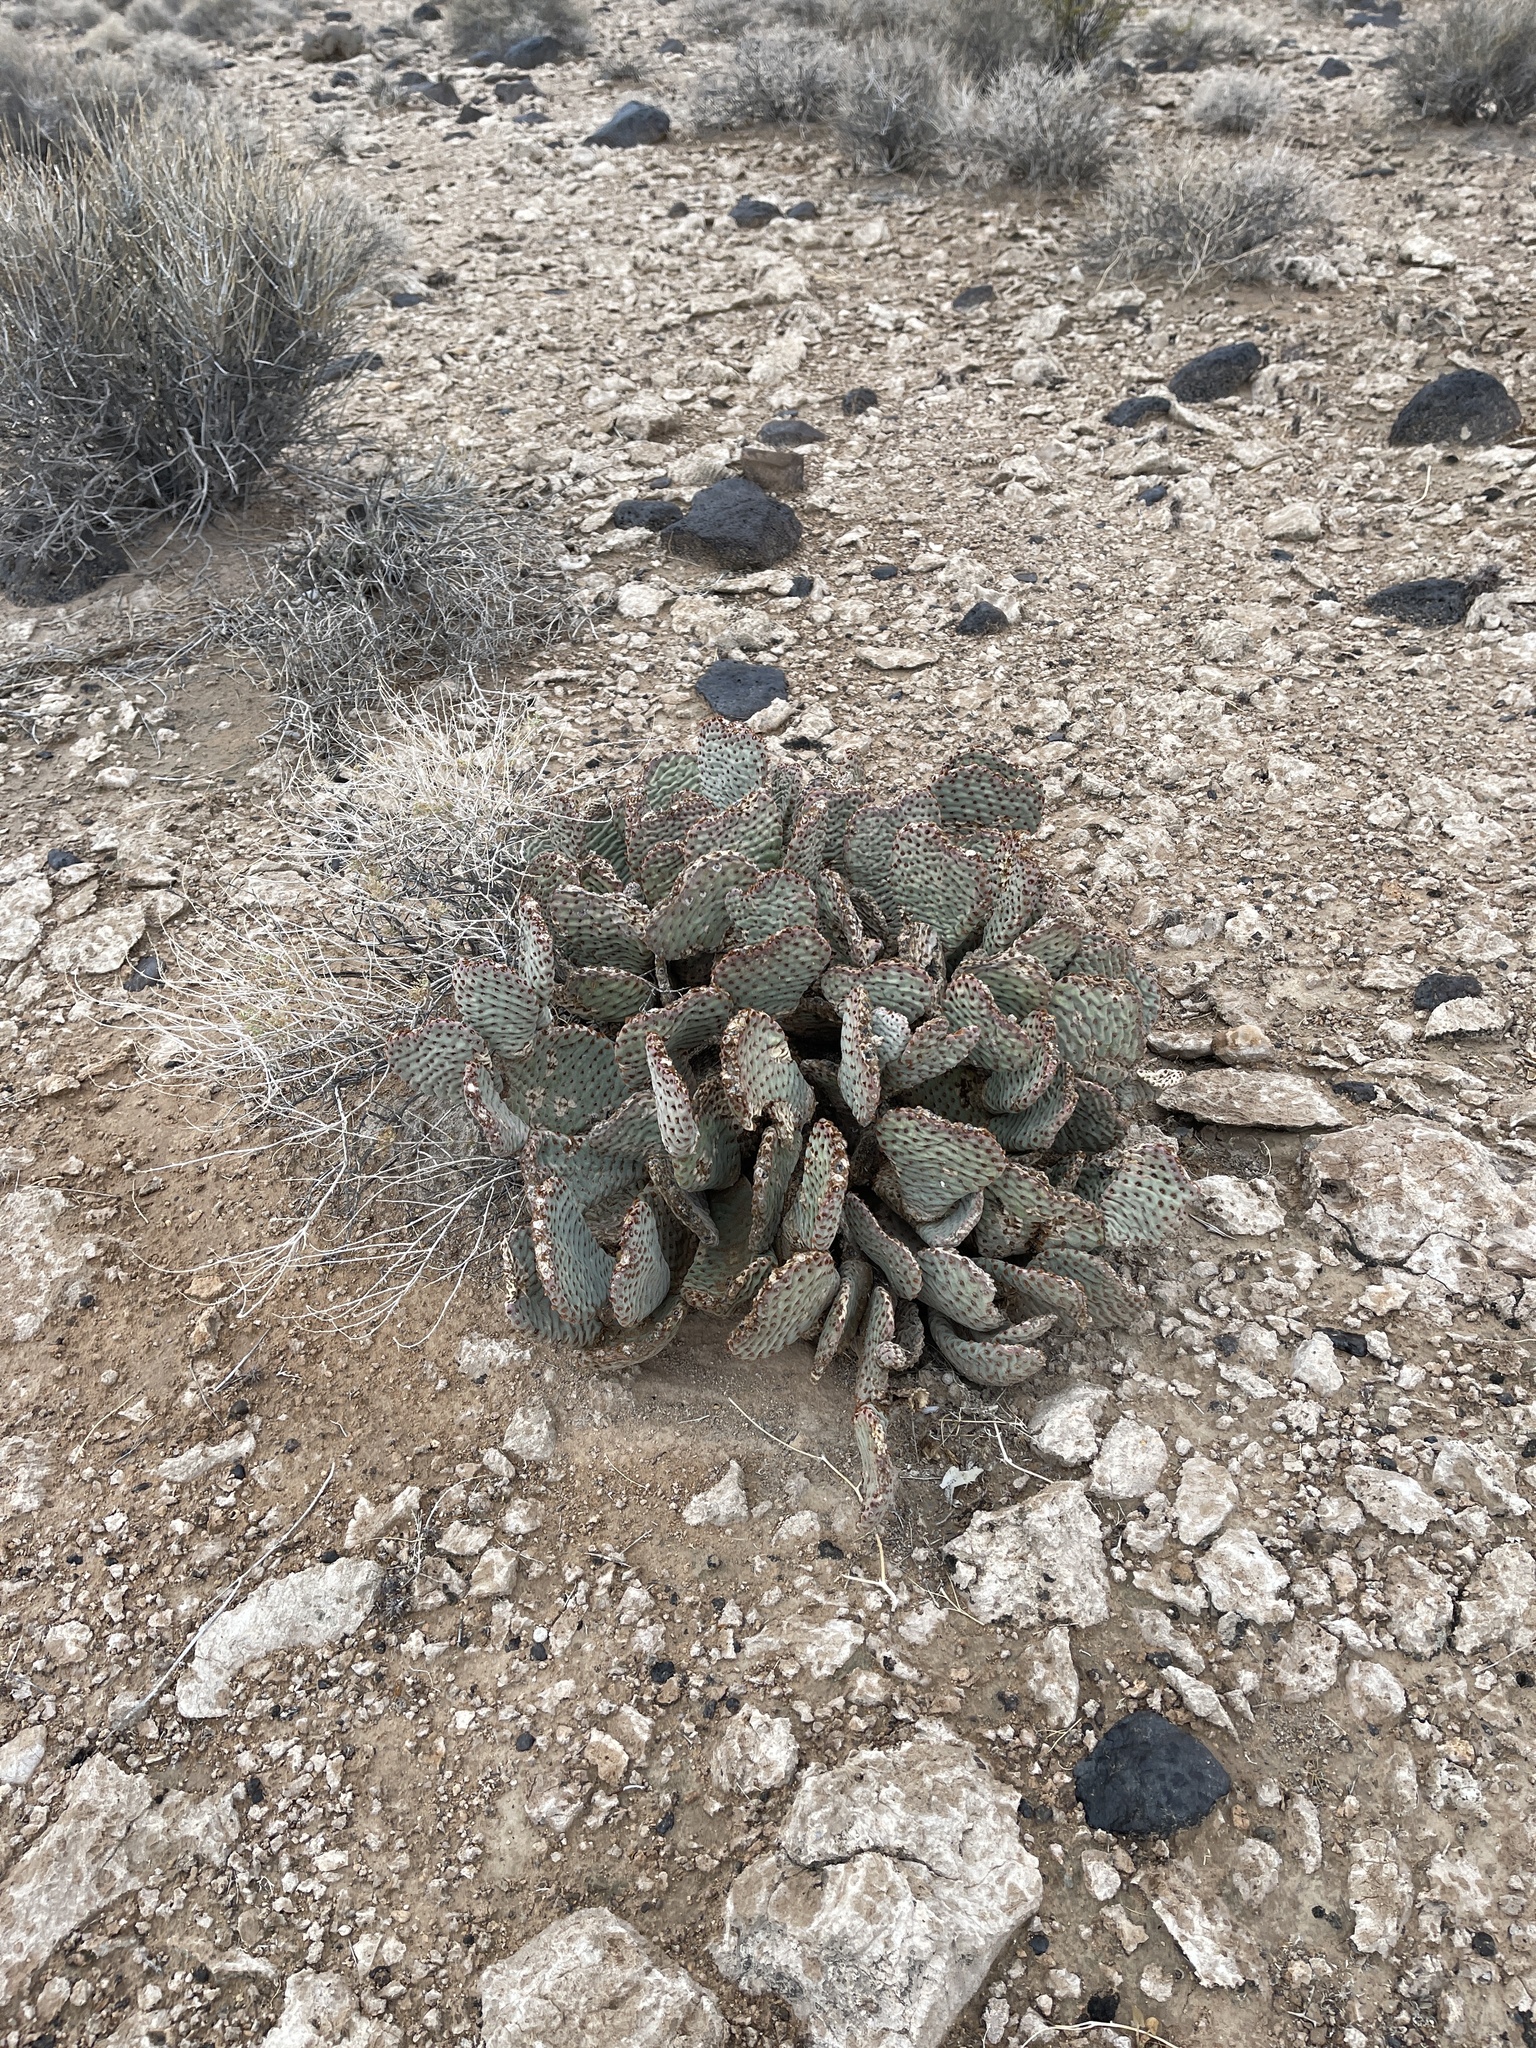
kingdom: Plantae
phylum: Tracheophyta
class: Magnoliopsida
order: Caryophyllales
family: Cactaceae
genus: Opuntia
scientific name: Opuntia basilaris
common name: Beavertail prickly-pear
